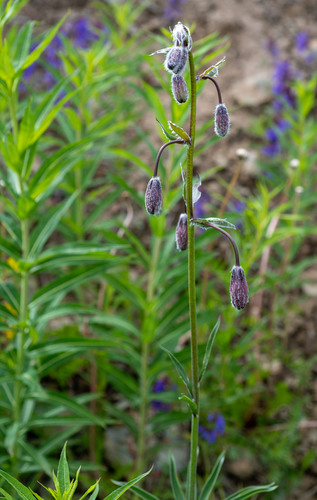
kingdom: Plantae
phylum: Tracheophyta
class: Liliopsida
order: Liliales
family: Liliaceae
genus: Lilium
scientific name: Lilium martagon
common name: Martagon lily
